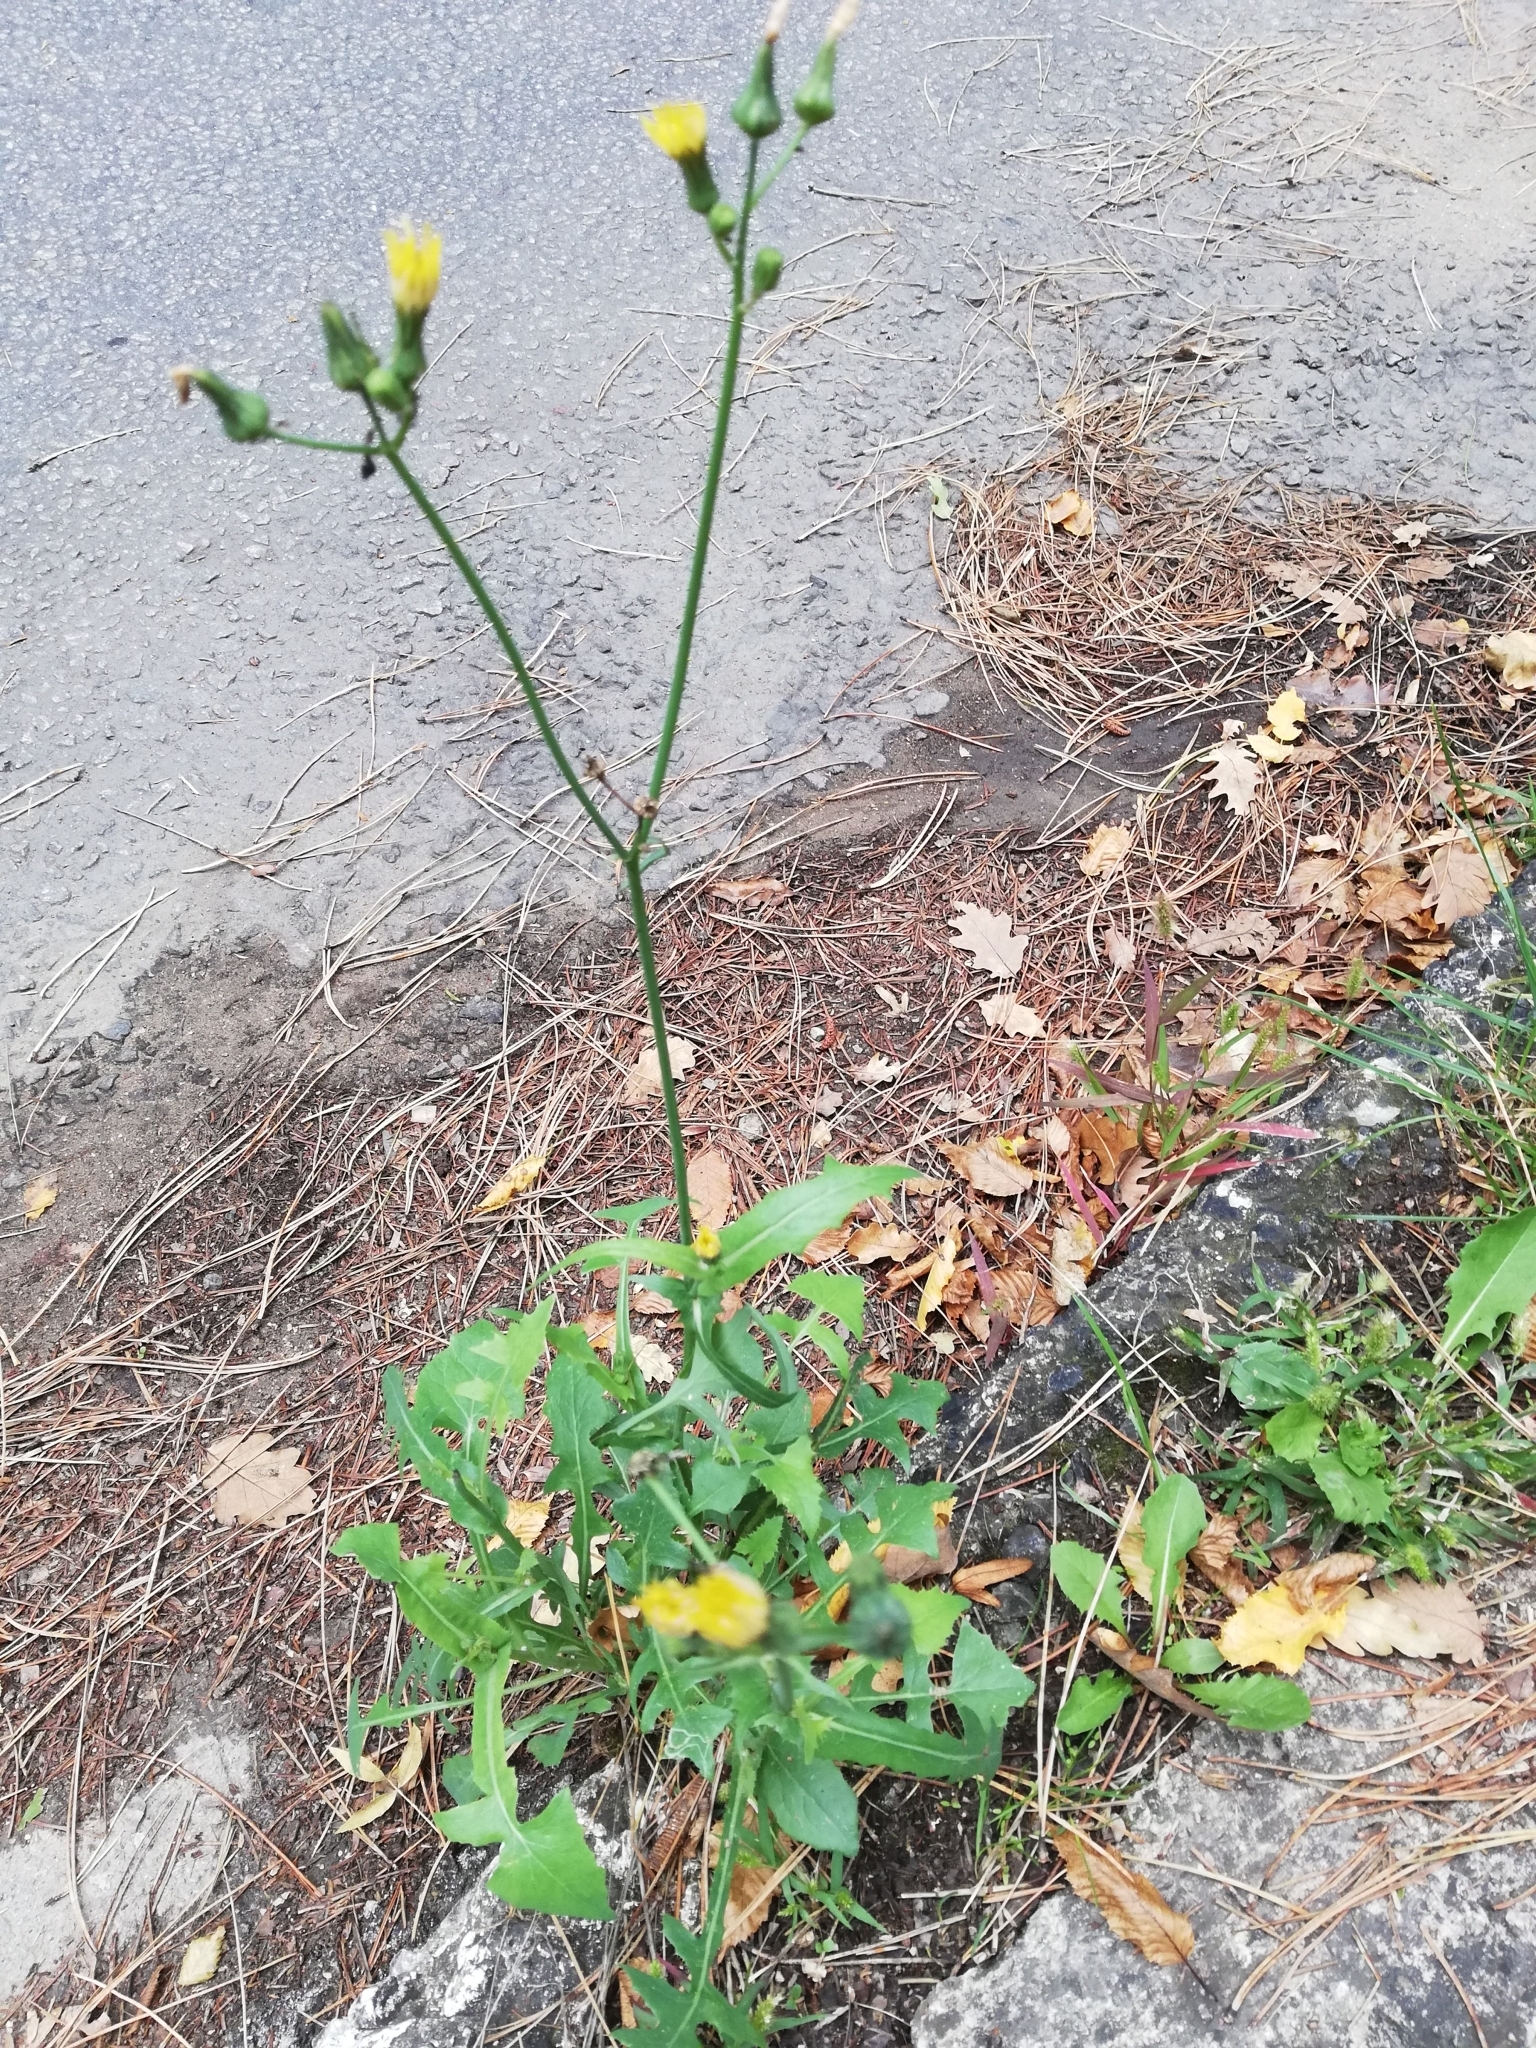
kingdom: Plantae
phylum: Tracheophyta
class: Magnoliopsida
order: Asterales
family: Asteraceae
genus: Sonchus
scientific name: Sonchus oleraceus
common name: Common sowthistle
